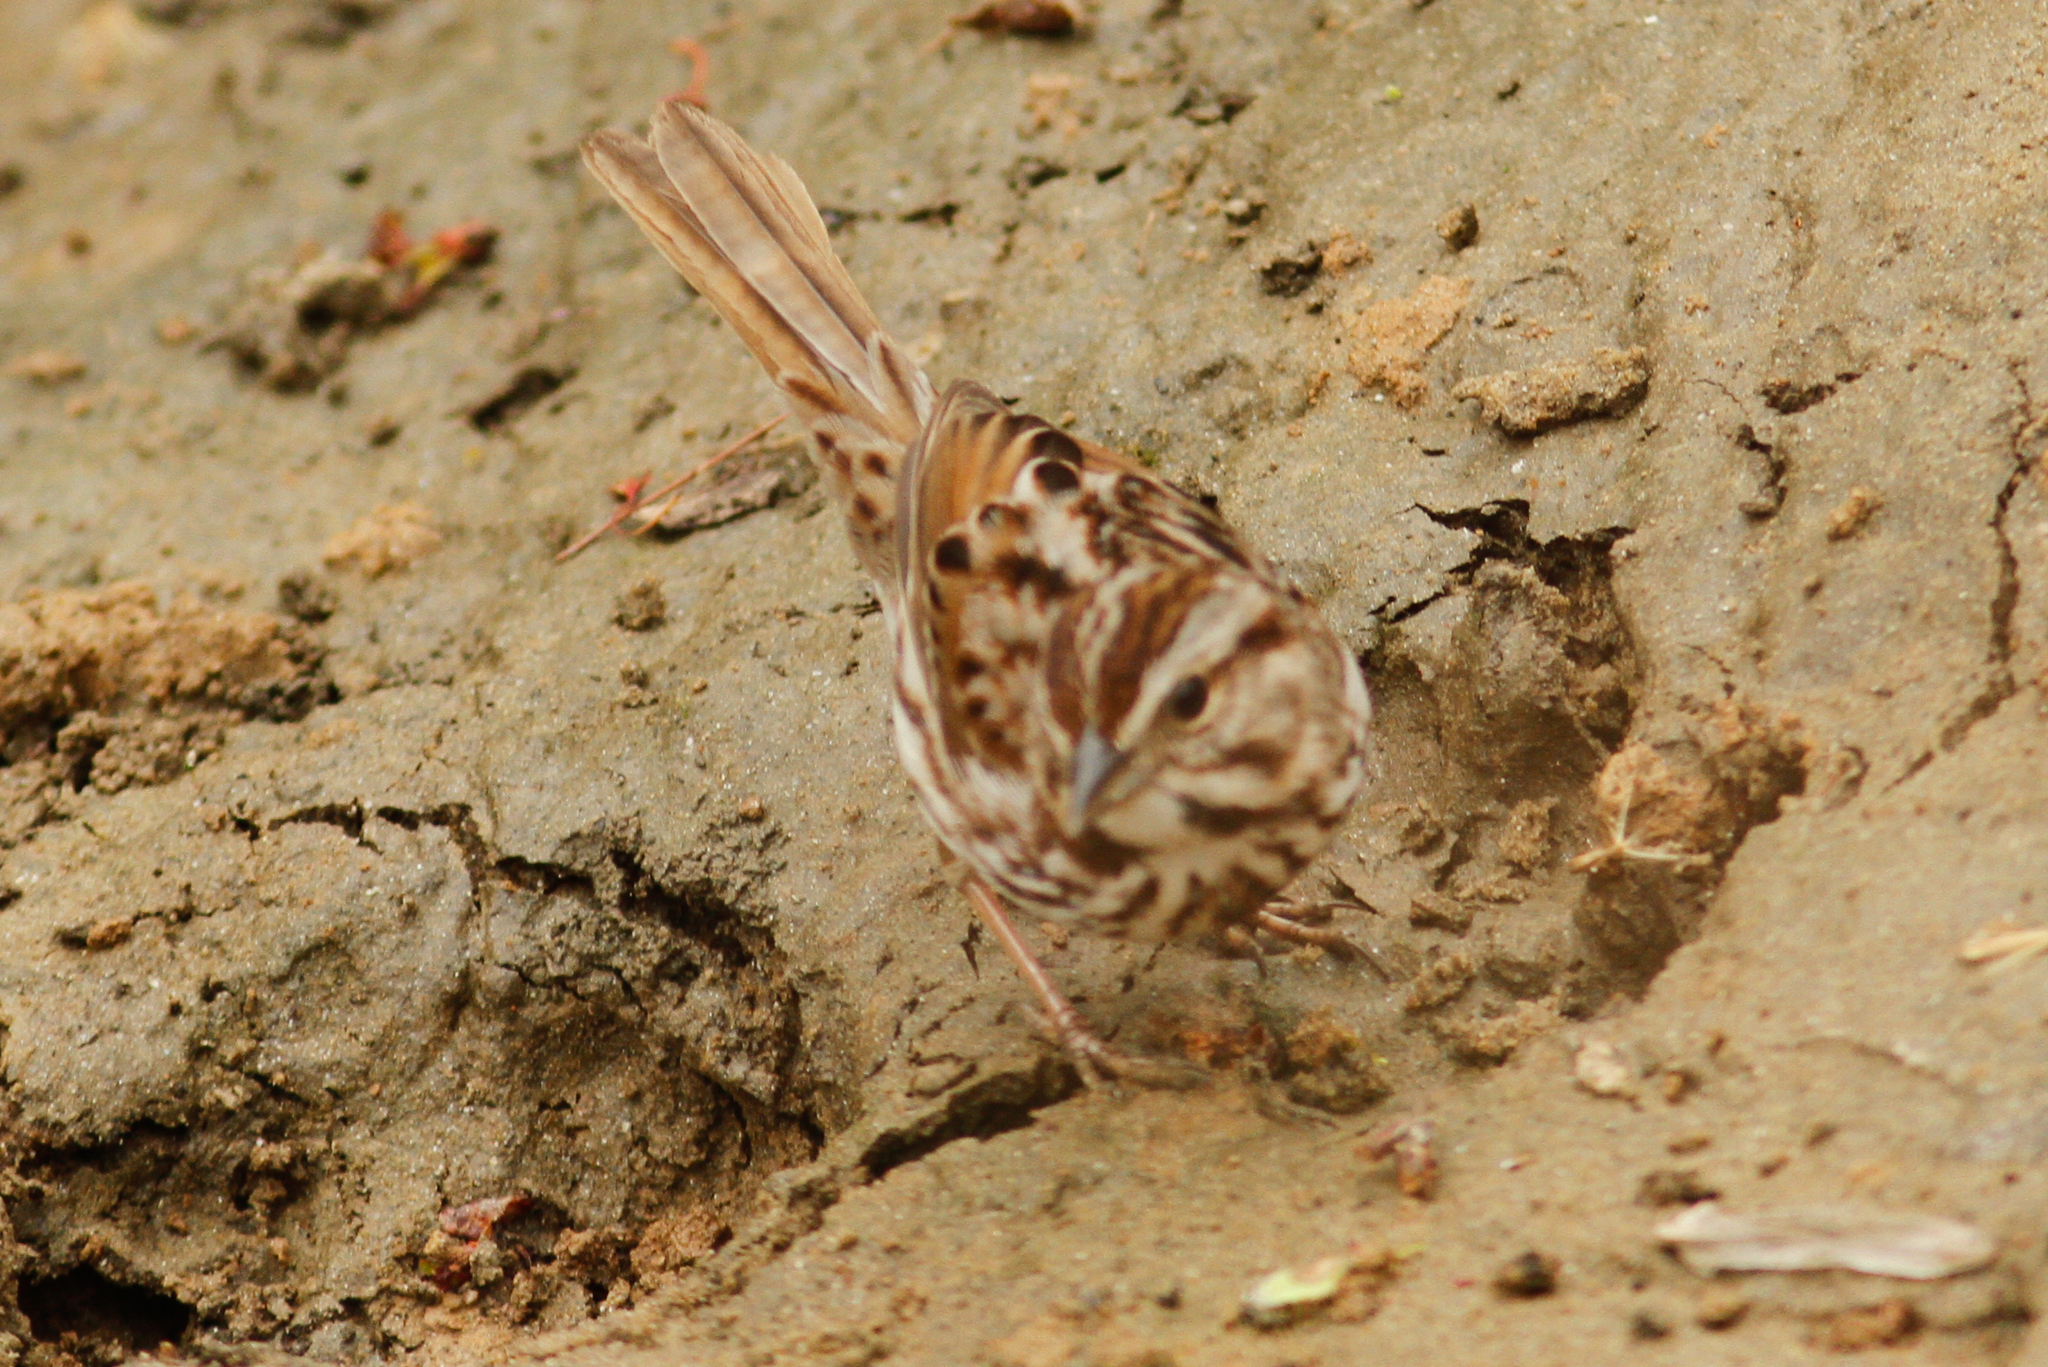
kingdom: Animalia
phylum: Chordata
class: Aves
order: Passeriformes
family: Passerellidae
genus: Melospiza
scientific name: Melospiza melodia
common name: Song sparrow
